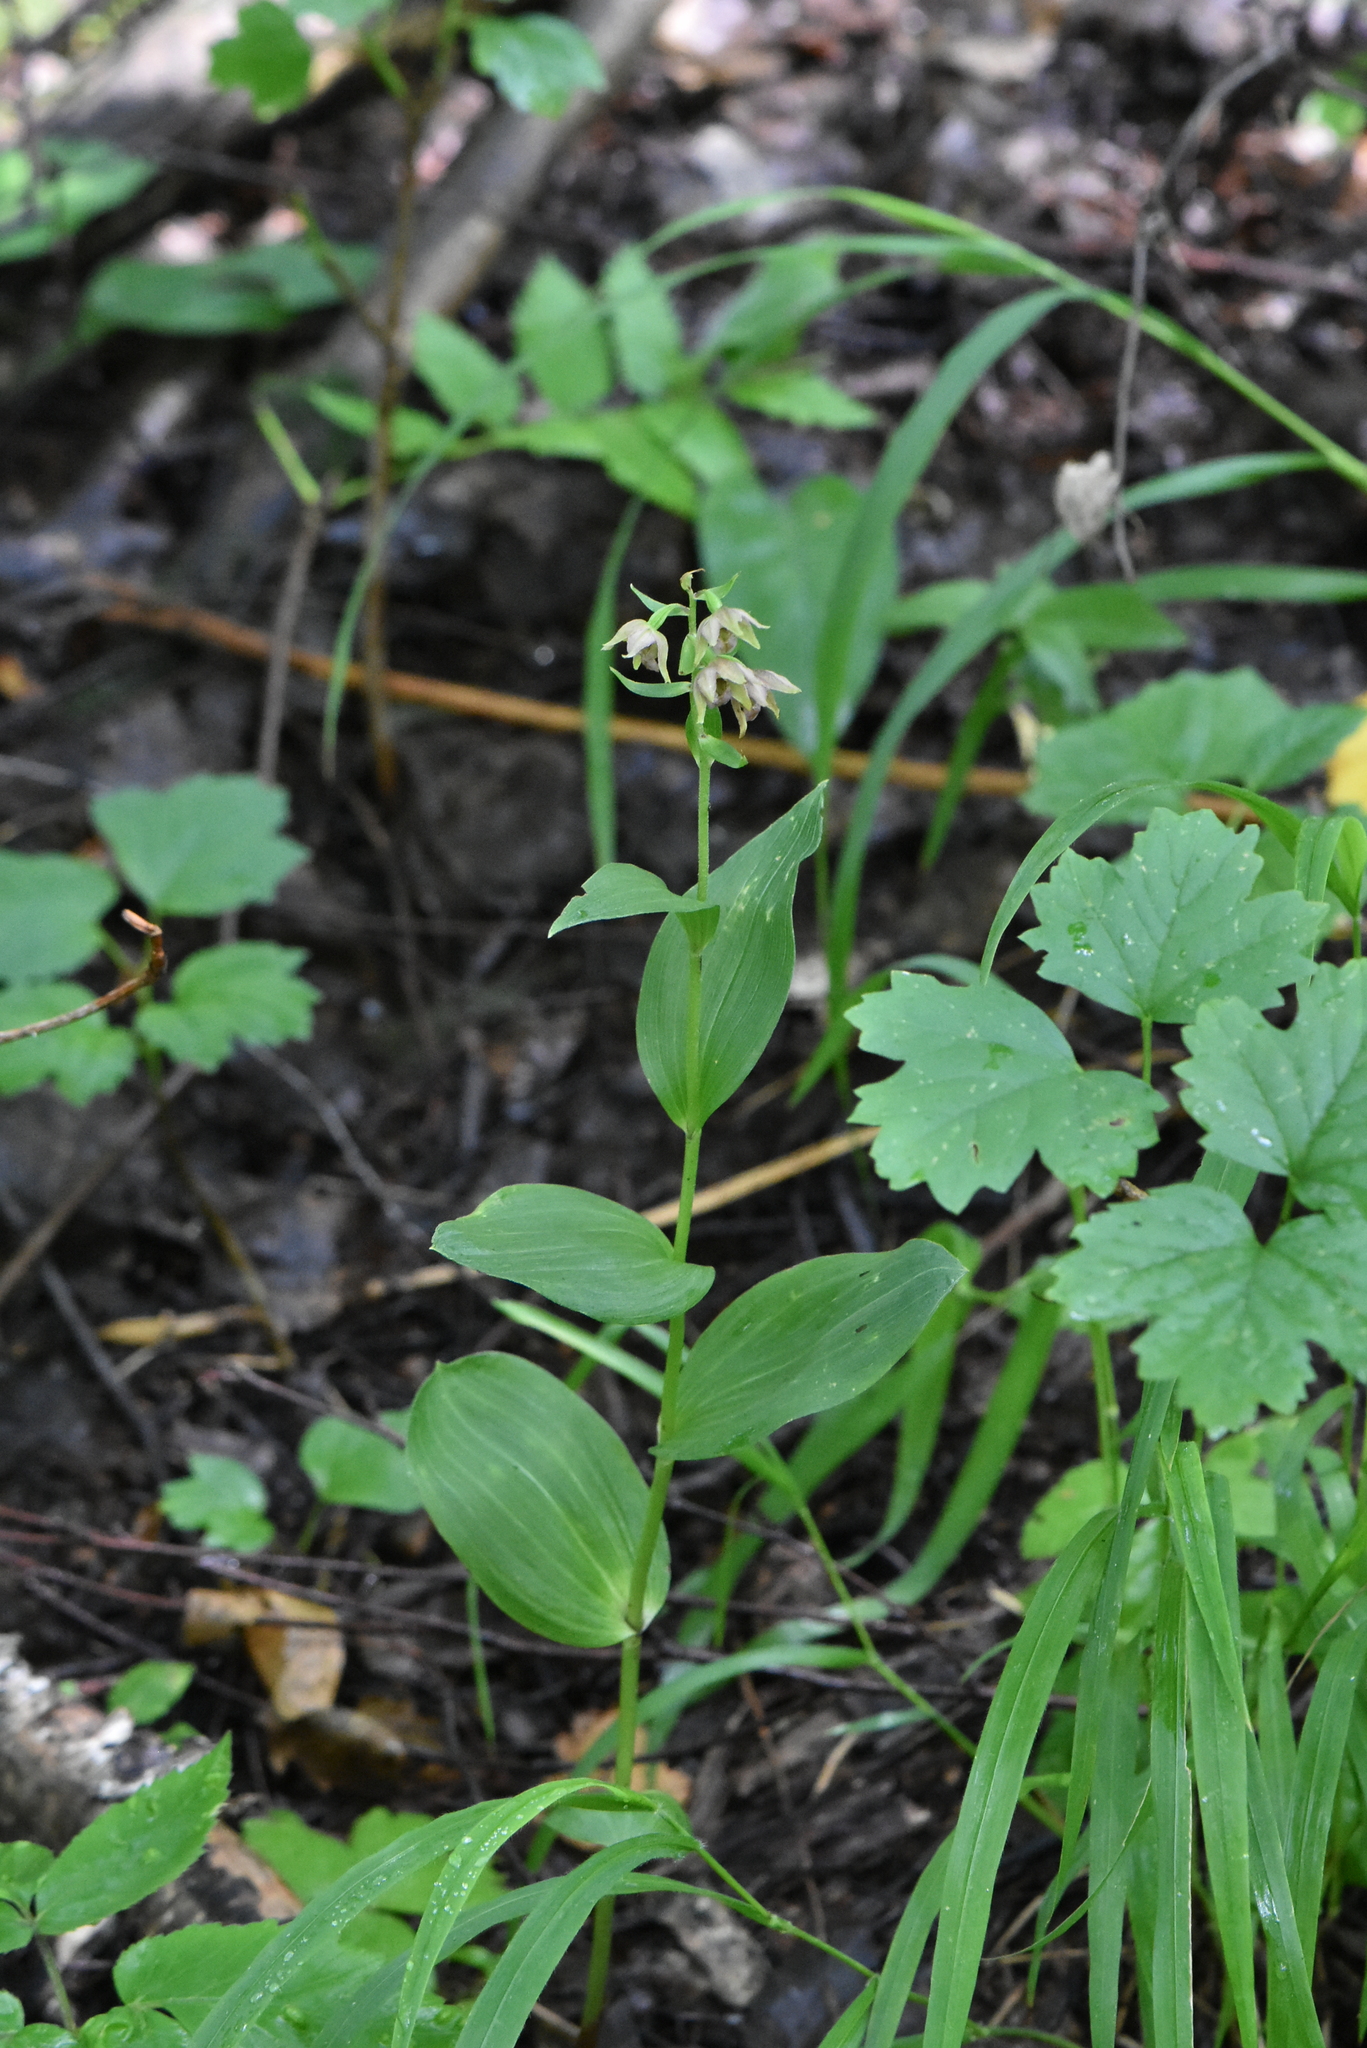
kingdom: Plantae
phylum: Tracheophyta
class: Liliopsida
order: Asparagales
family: Orchidaceae
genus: Epipactis
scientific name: Epipactis helleborine
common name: Broad-leaved helleborine
